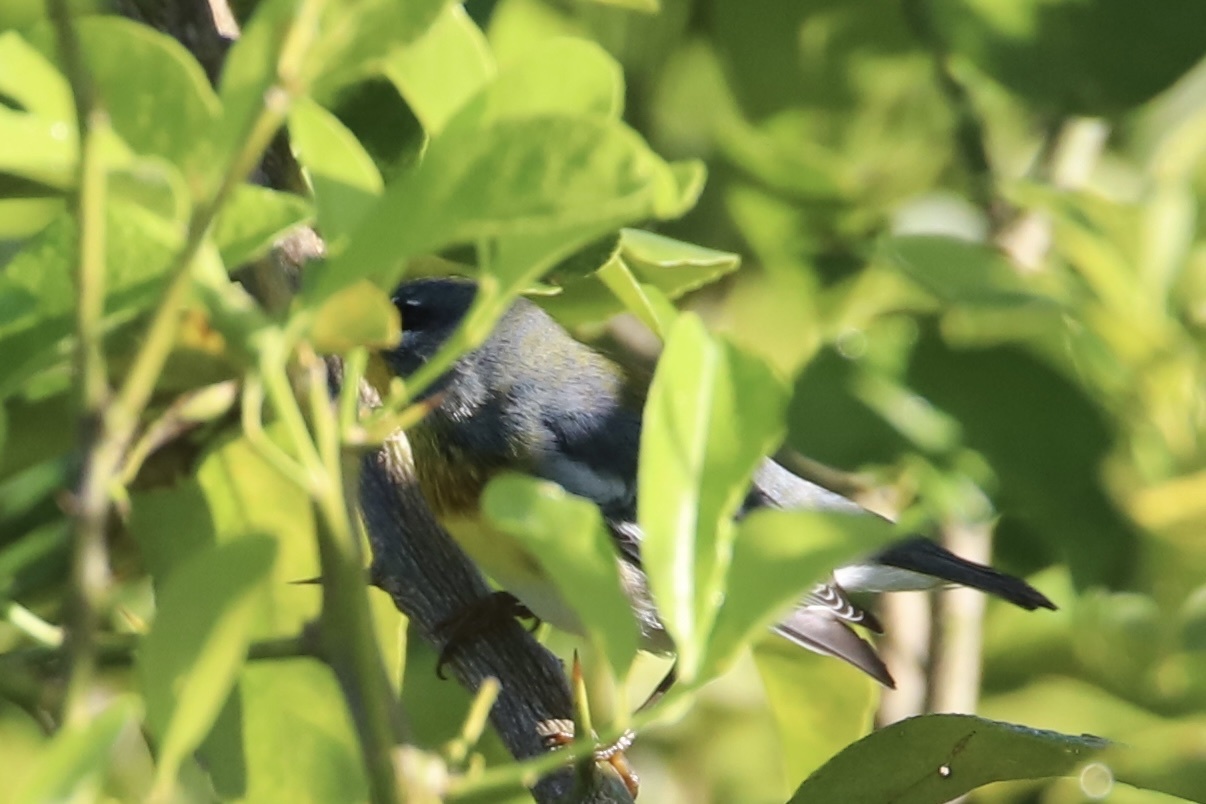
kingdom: Animalia
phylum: Chordata
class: Aves
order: Passeriformes
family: Parulidae
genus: Setophaga
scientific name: Setophaga americana
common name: Northern parula
